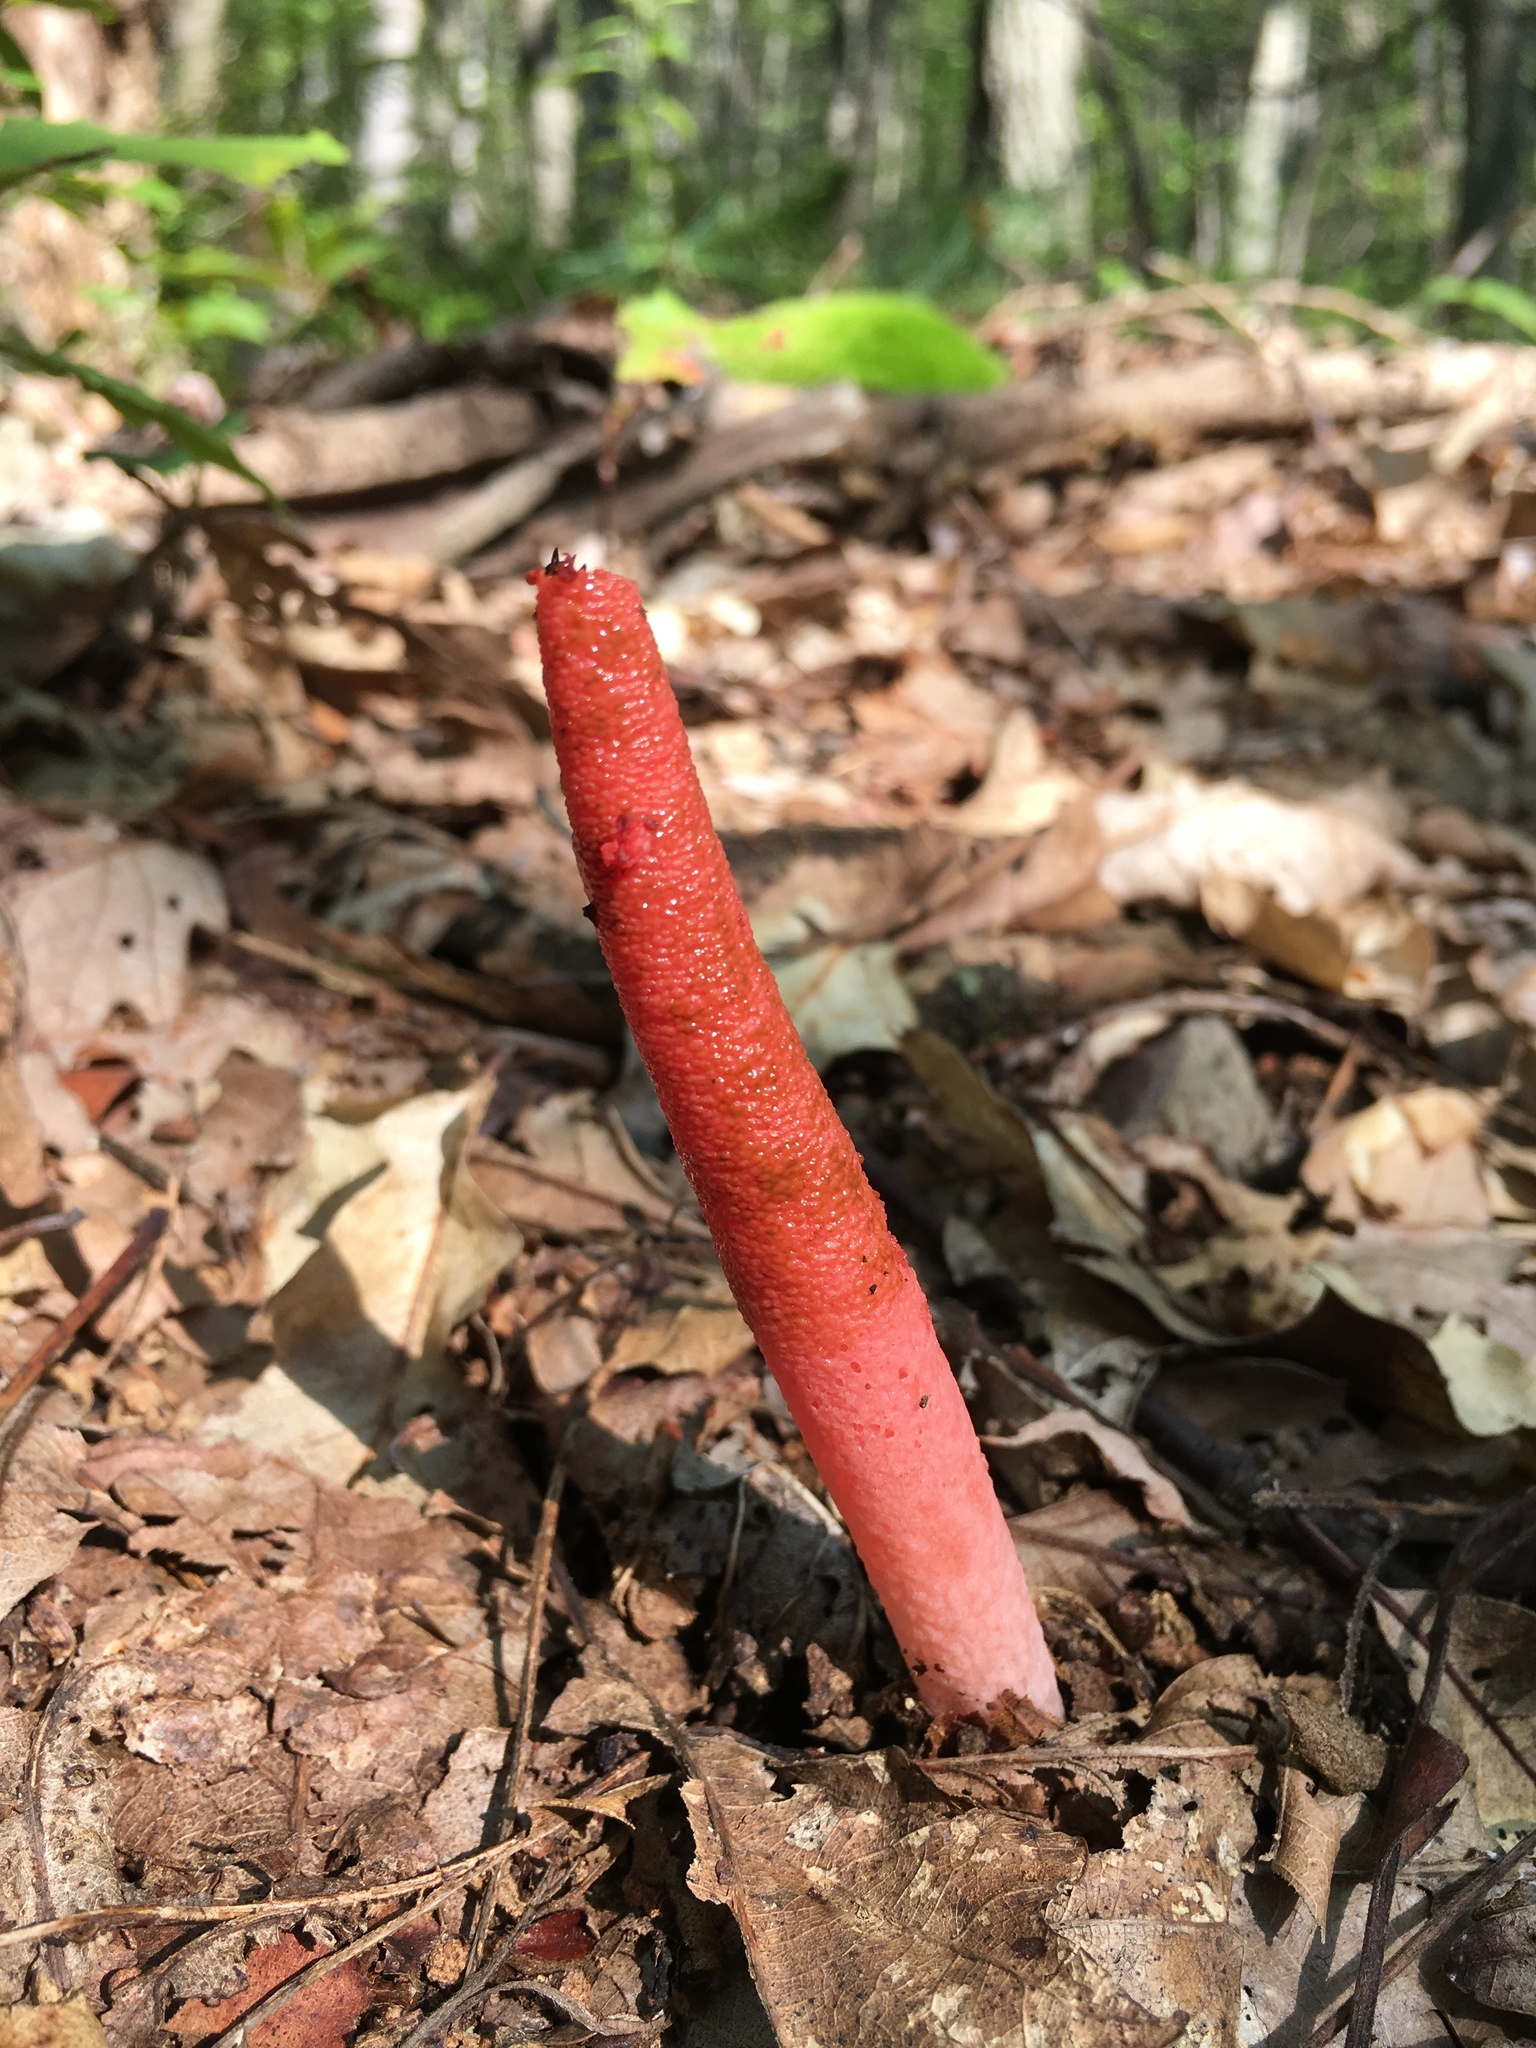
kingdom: Fungi
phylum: Basidiomycota
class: Agaricomycetes
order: Phallales
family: Phallaceae
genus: Mutinus
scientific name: Mutinus elegans
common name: Devil's dipstick
